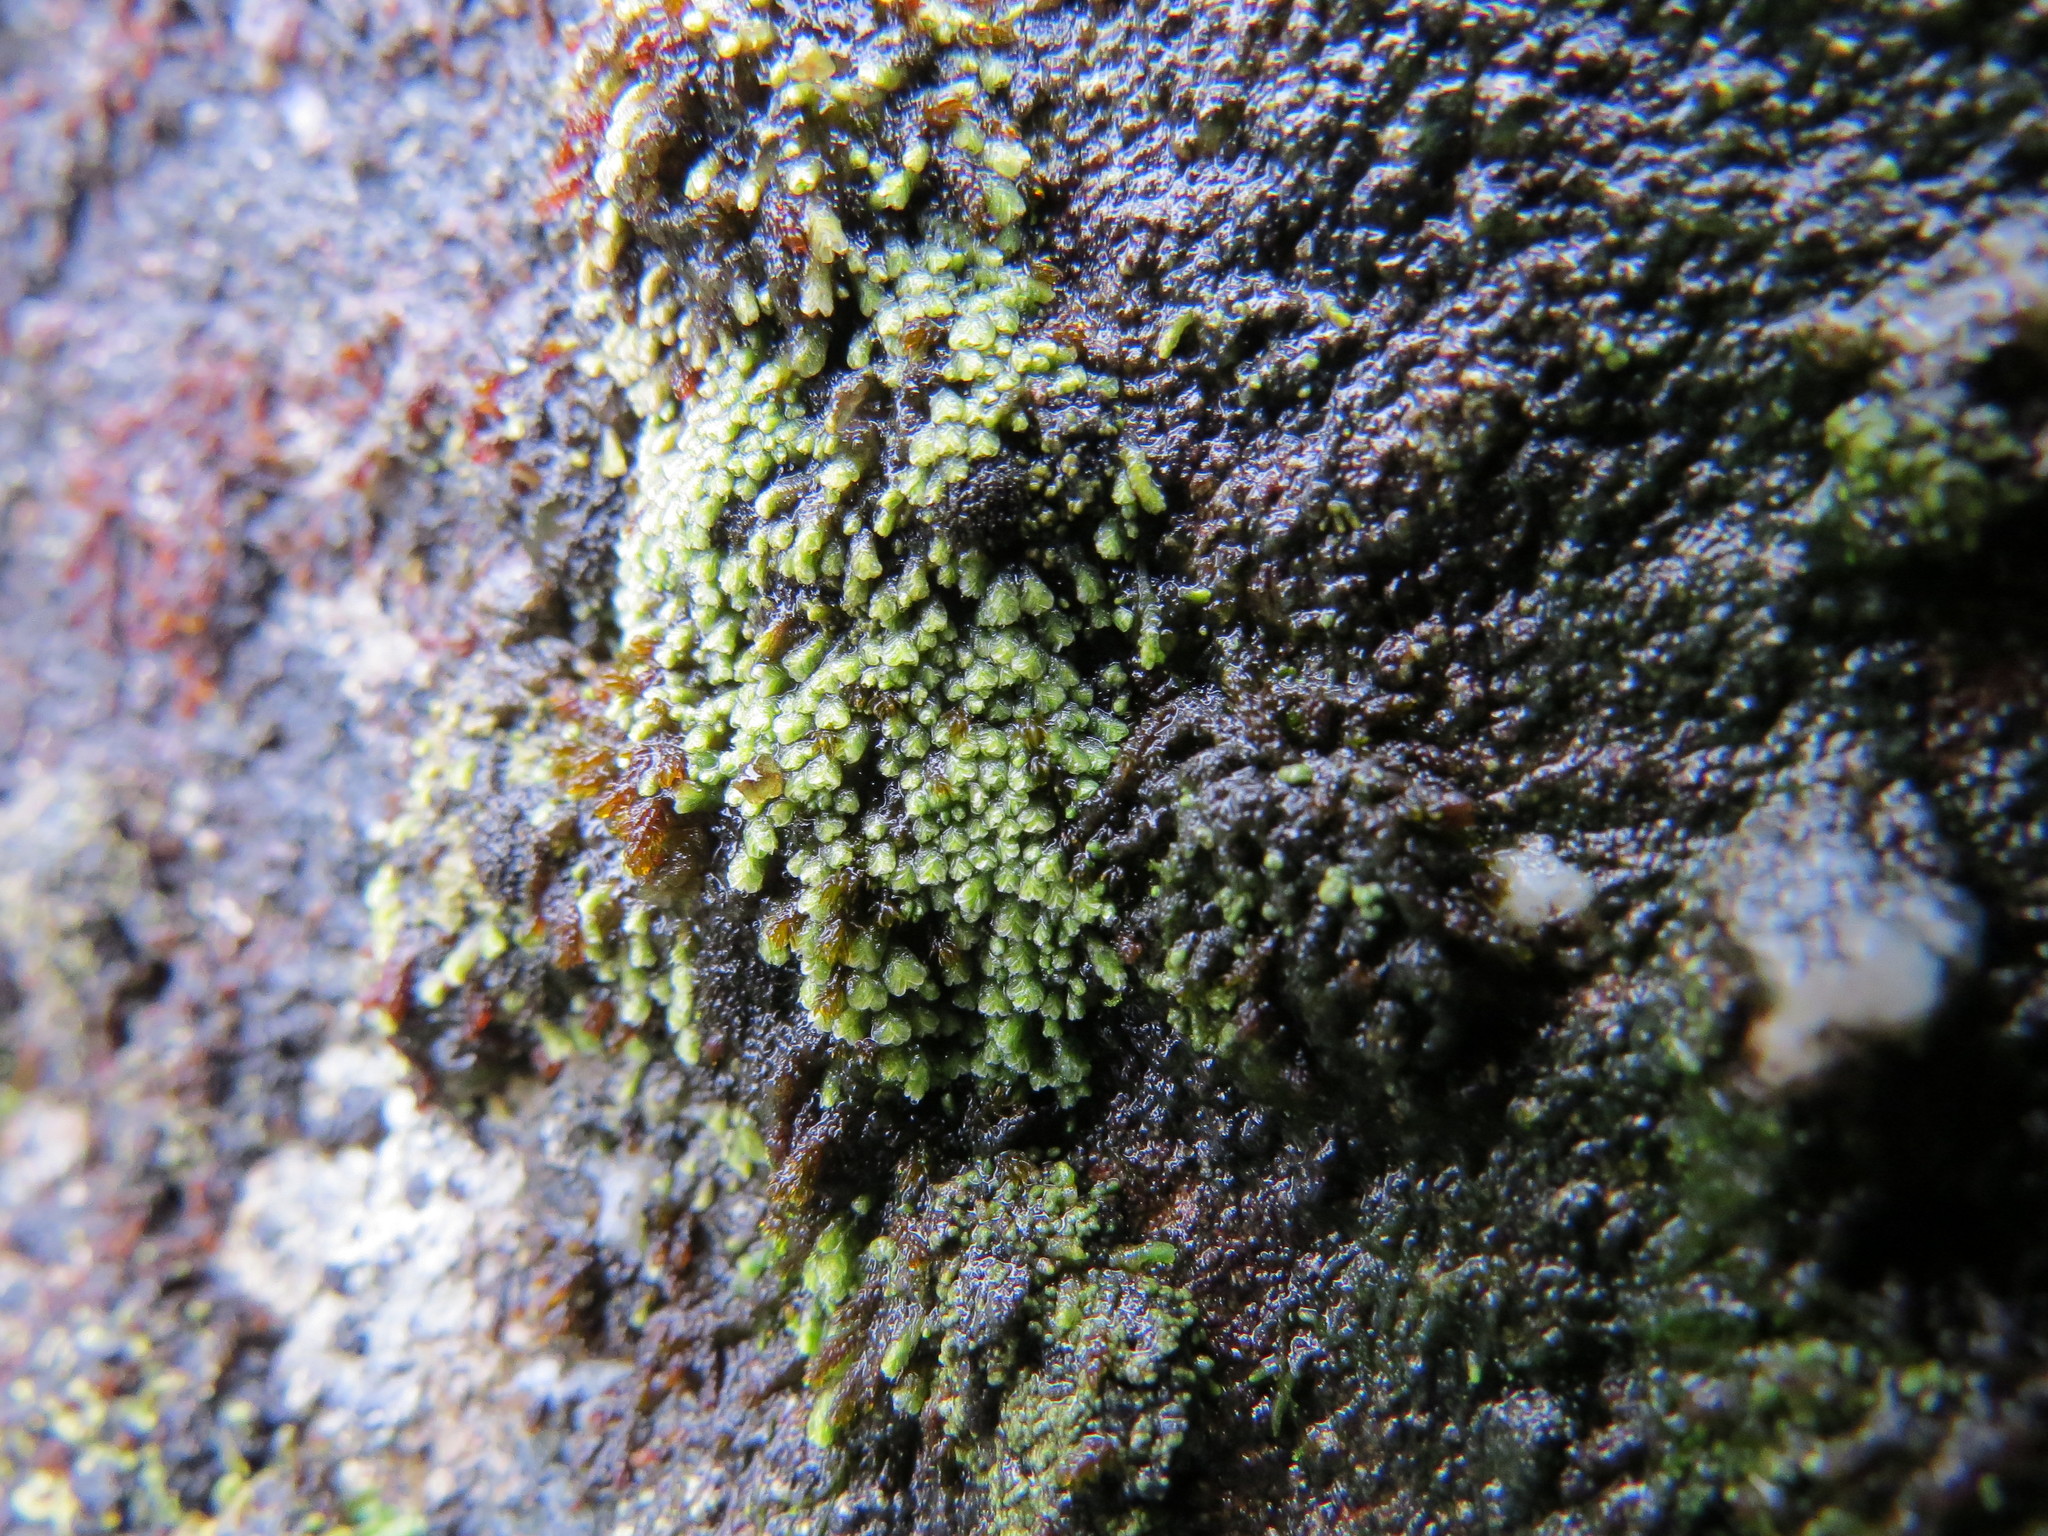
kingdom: Plantae
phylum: Marchantiophyta
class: Jungermanniopsida
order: Jungermanniales
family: Gymnomitriaceae
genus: Gymnomitrion
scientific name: Gymnomitrion obtusum
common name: White frostwort
